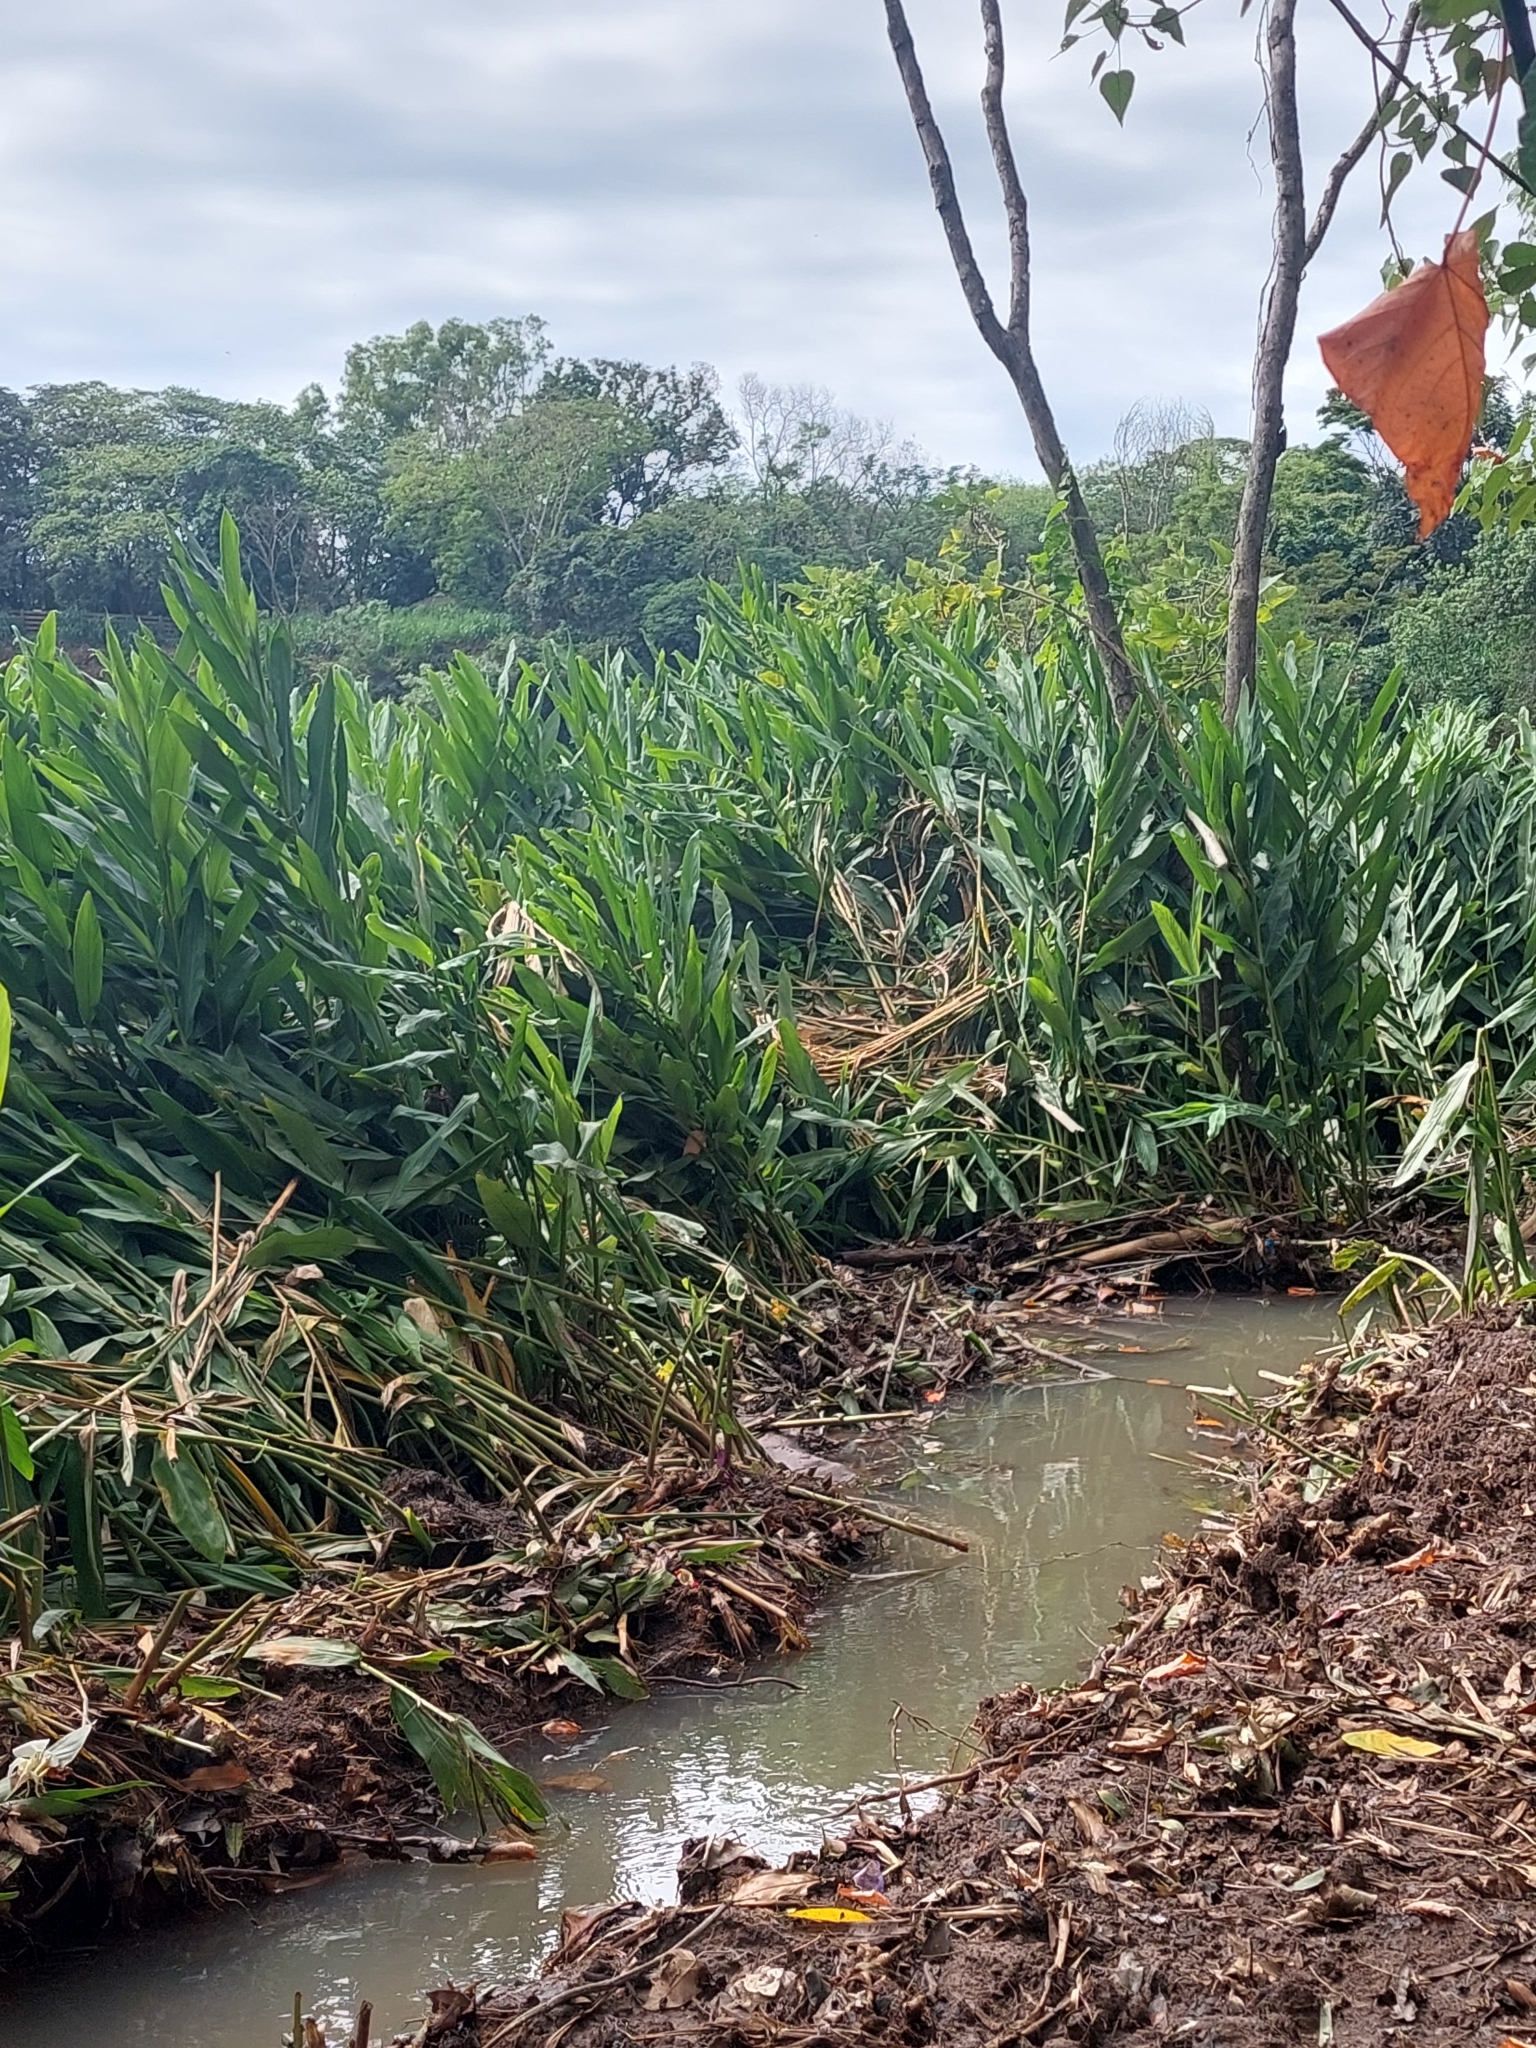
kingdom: Plantae
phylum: Tracheophyta
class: Liliopsida
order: Zingiberales
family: Zingiberaceae
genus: Hedychium
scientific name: Hedychium coronarium
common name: White garland-lily
